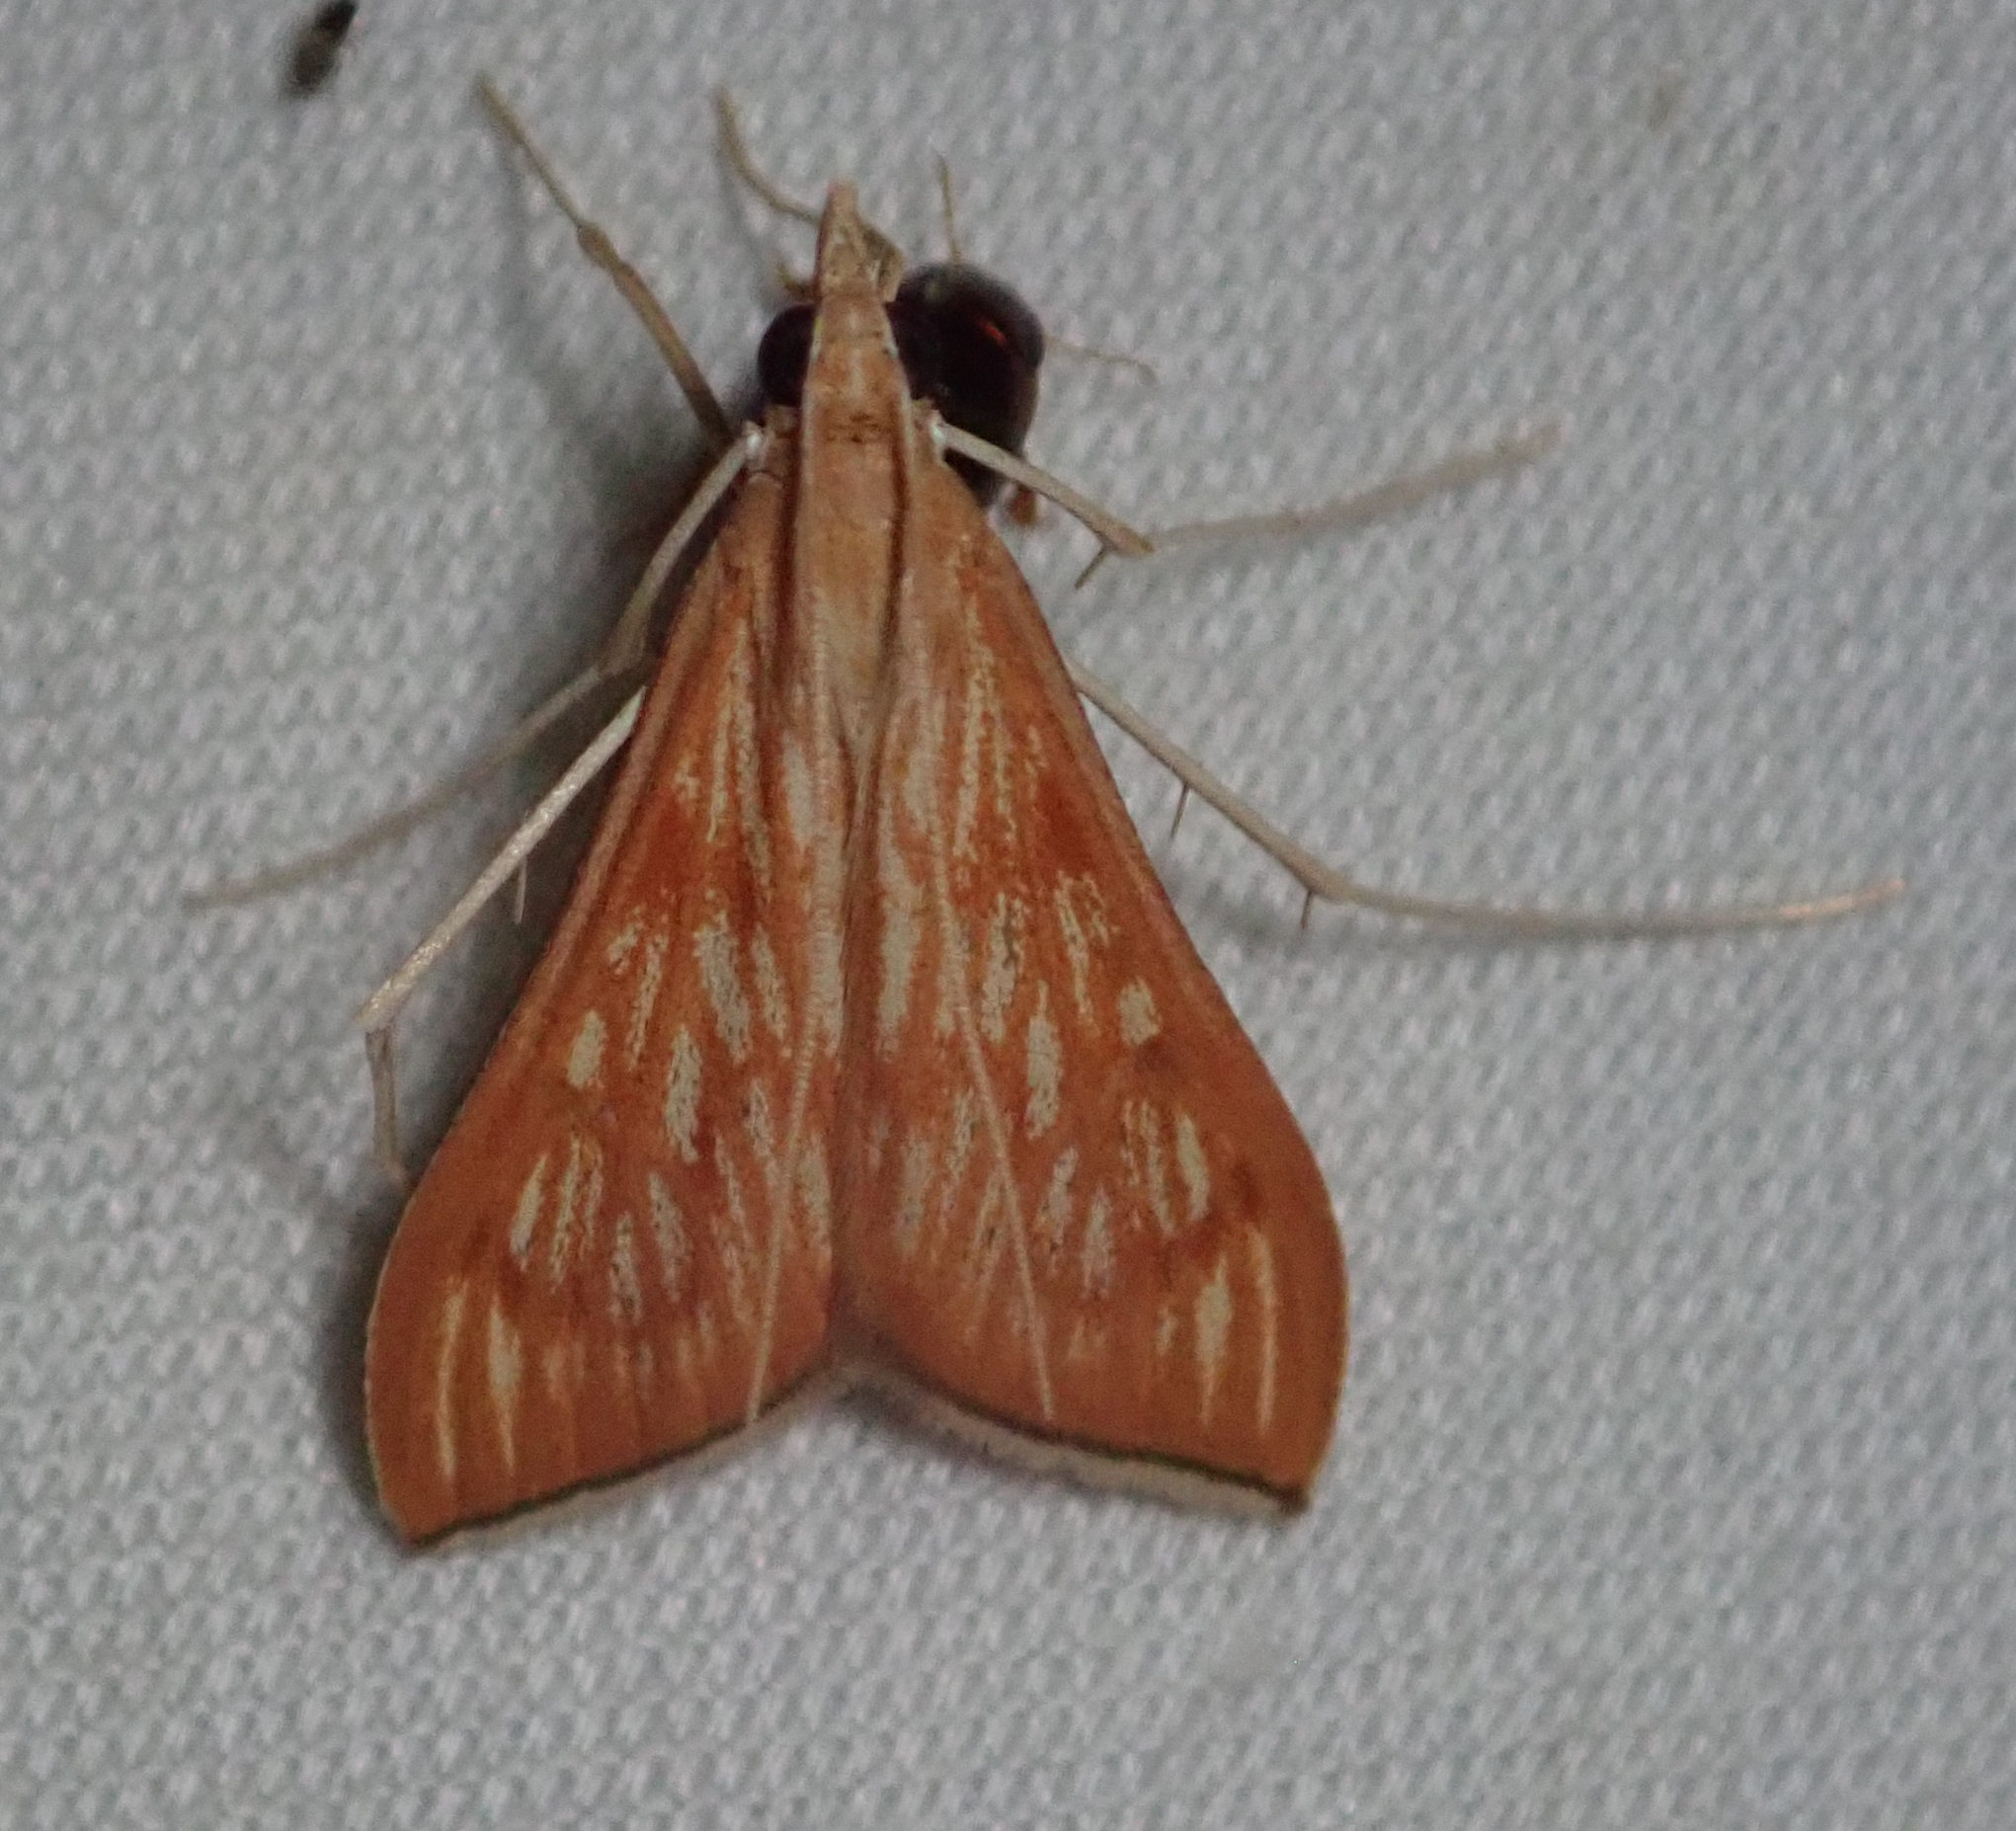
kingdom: Animalia
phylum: Arthropoda
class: Insecta
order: Lepidoptera
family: Crambidae
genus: Antigastra
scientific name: Antigastra catalaunalis
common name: Spanish dot
